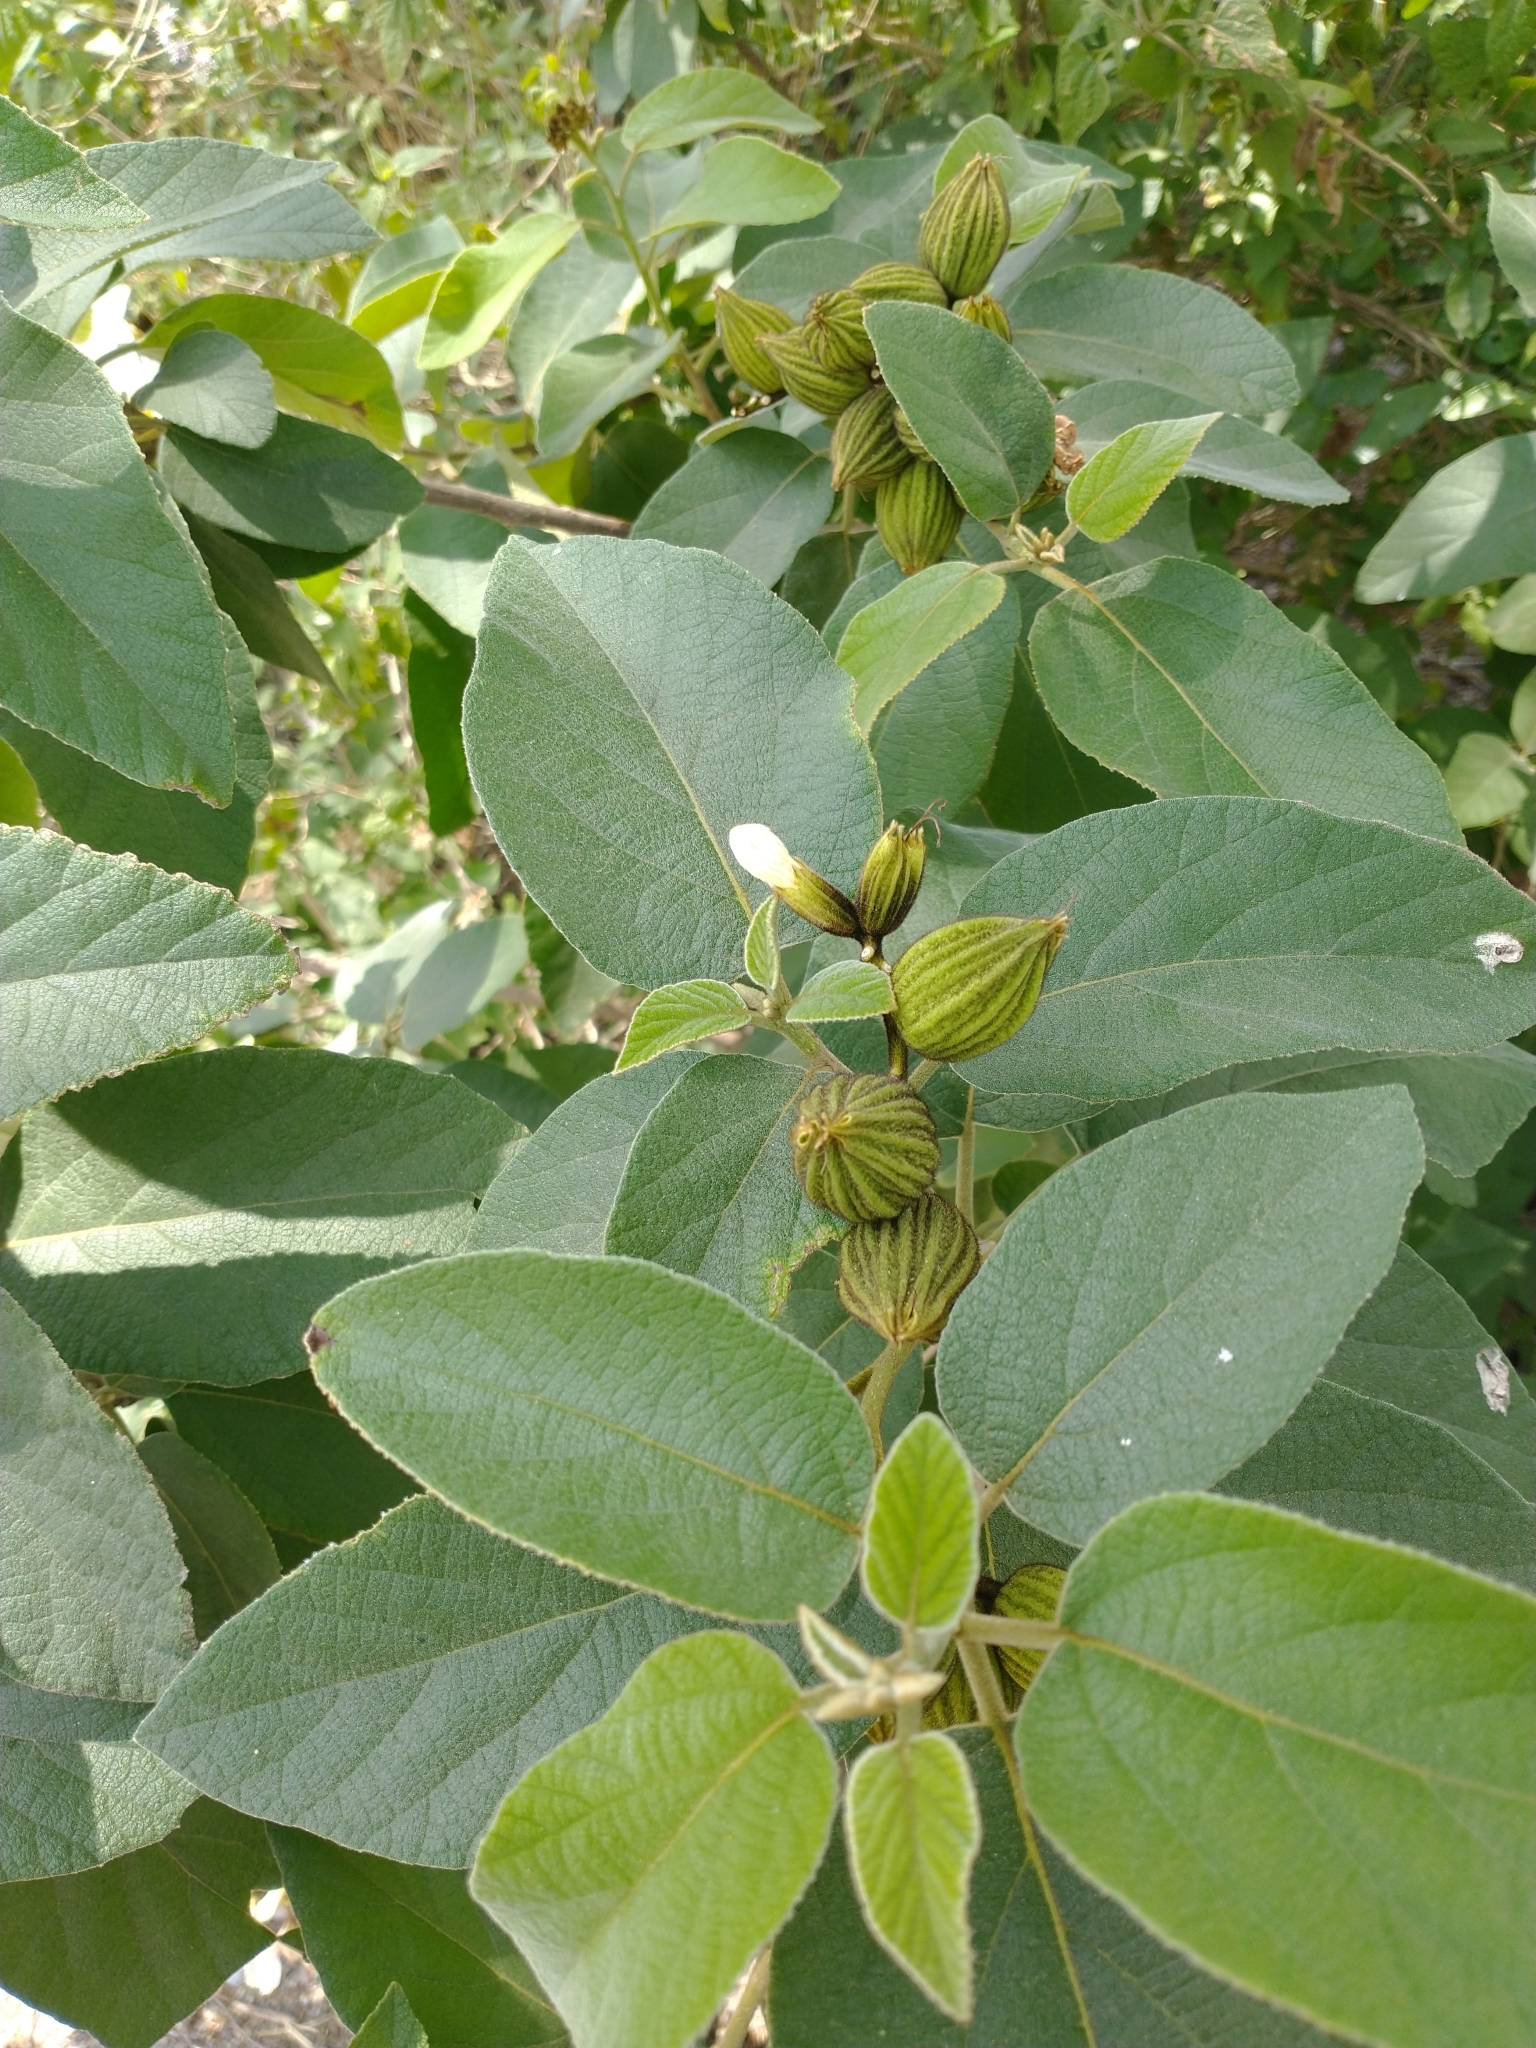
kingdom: Plantae
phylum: Tracheophyta
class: Magnoliopsida
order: Boraginales
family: Cordiaceae
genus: Cordia
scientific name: Cordia boissieri
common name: Mexican-olive
